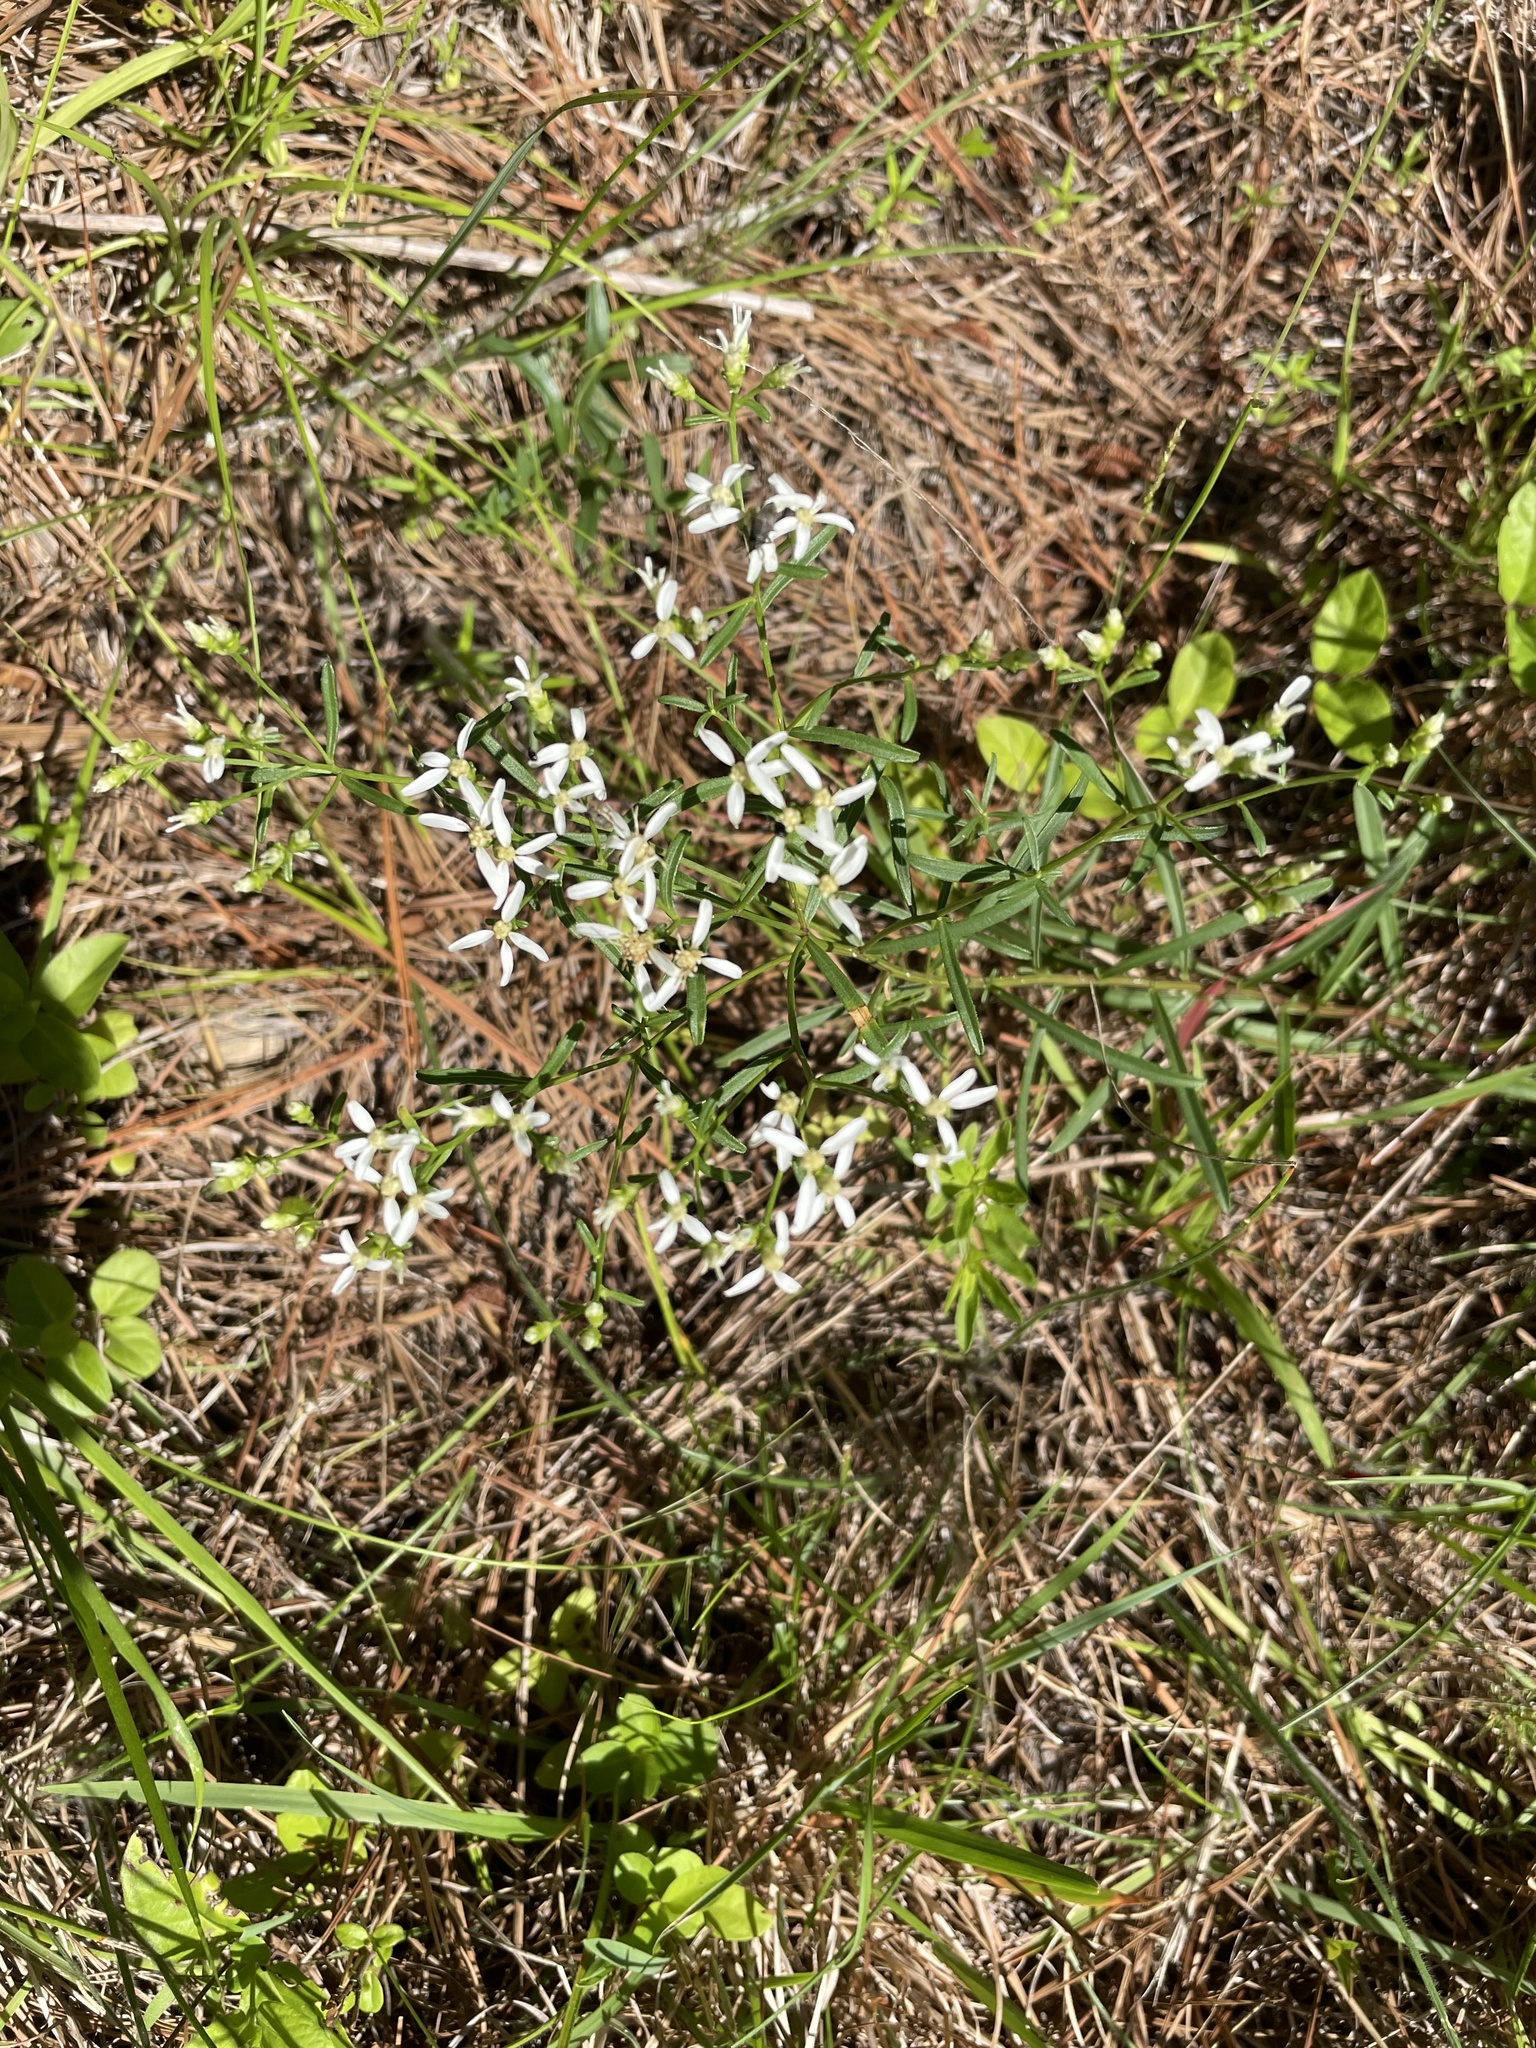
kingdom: Plantae
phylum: Tracheophyta
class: Magnoliopsida
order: Asterales
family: Asteraceae
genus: Sericocarpus
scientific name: Sericocarpus linifolius
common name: Narrow-leaf aster
